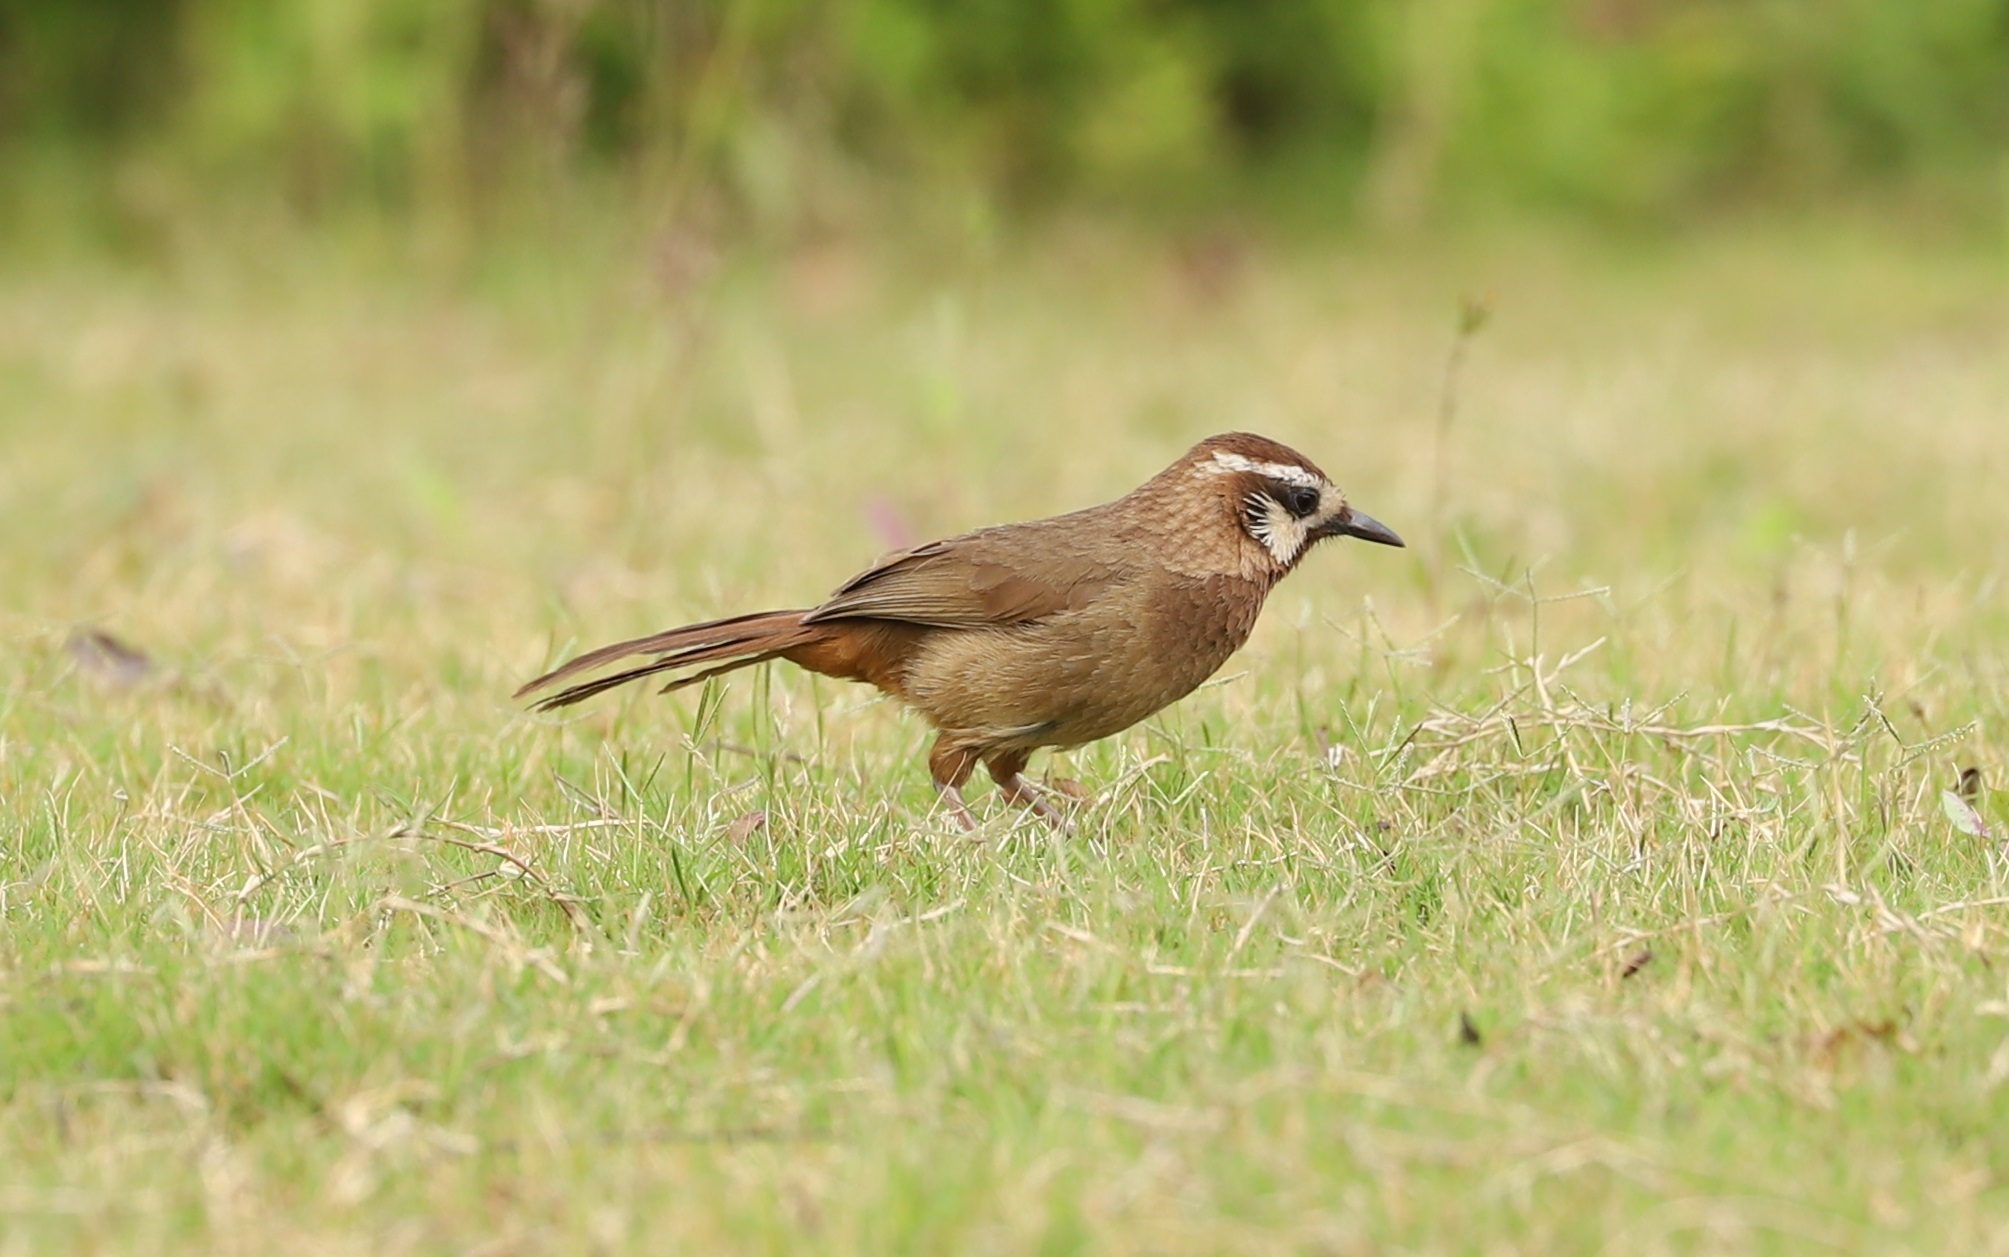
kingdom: Animalia
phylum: Chordata
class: Aves
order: Passeriformes
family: Leiothrichidae
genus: Pterorhinus
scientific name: Pterorhinus sannio
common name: White-browed laughingthrush
